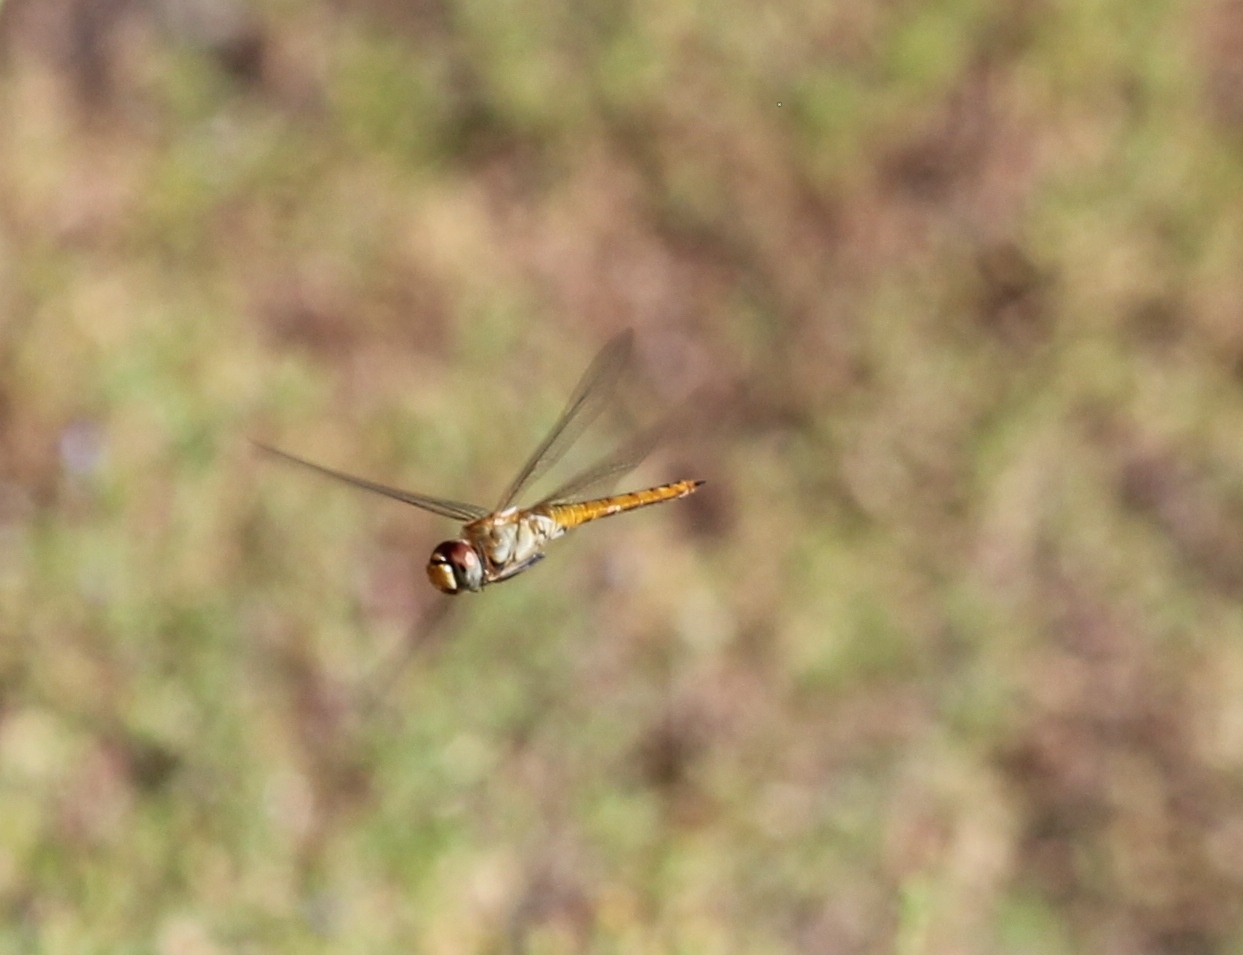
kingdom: Animalia
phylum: Arthropoda
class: Insecta
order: Odonata
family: Libellulidae
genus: Pantala
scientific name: Pantala flavescens
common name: Wandering glider
